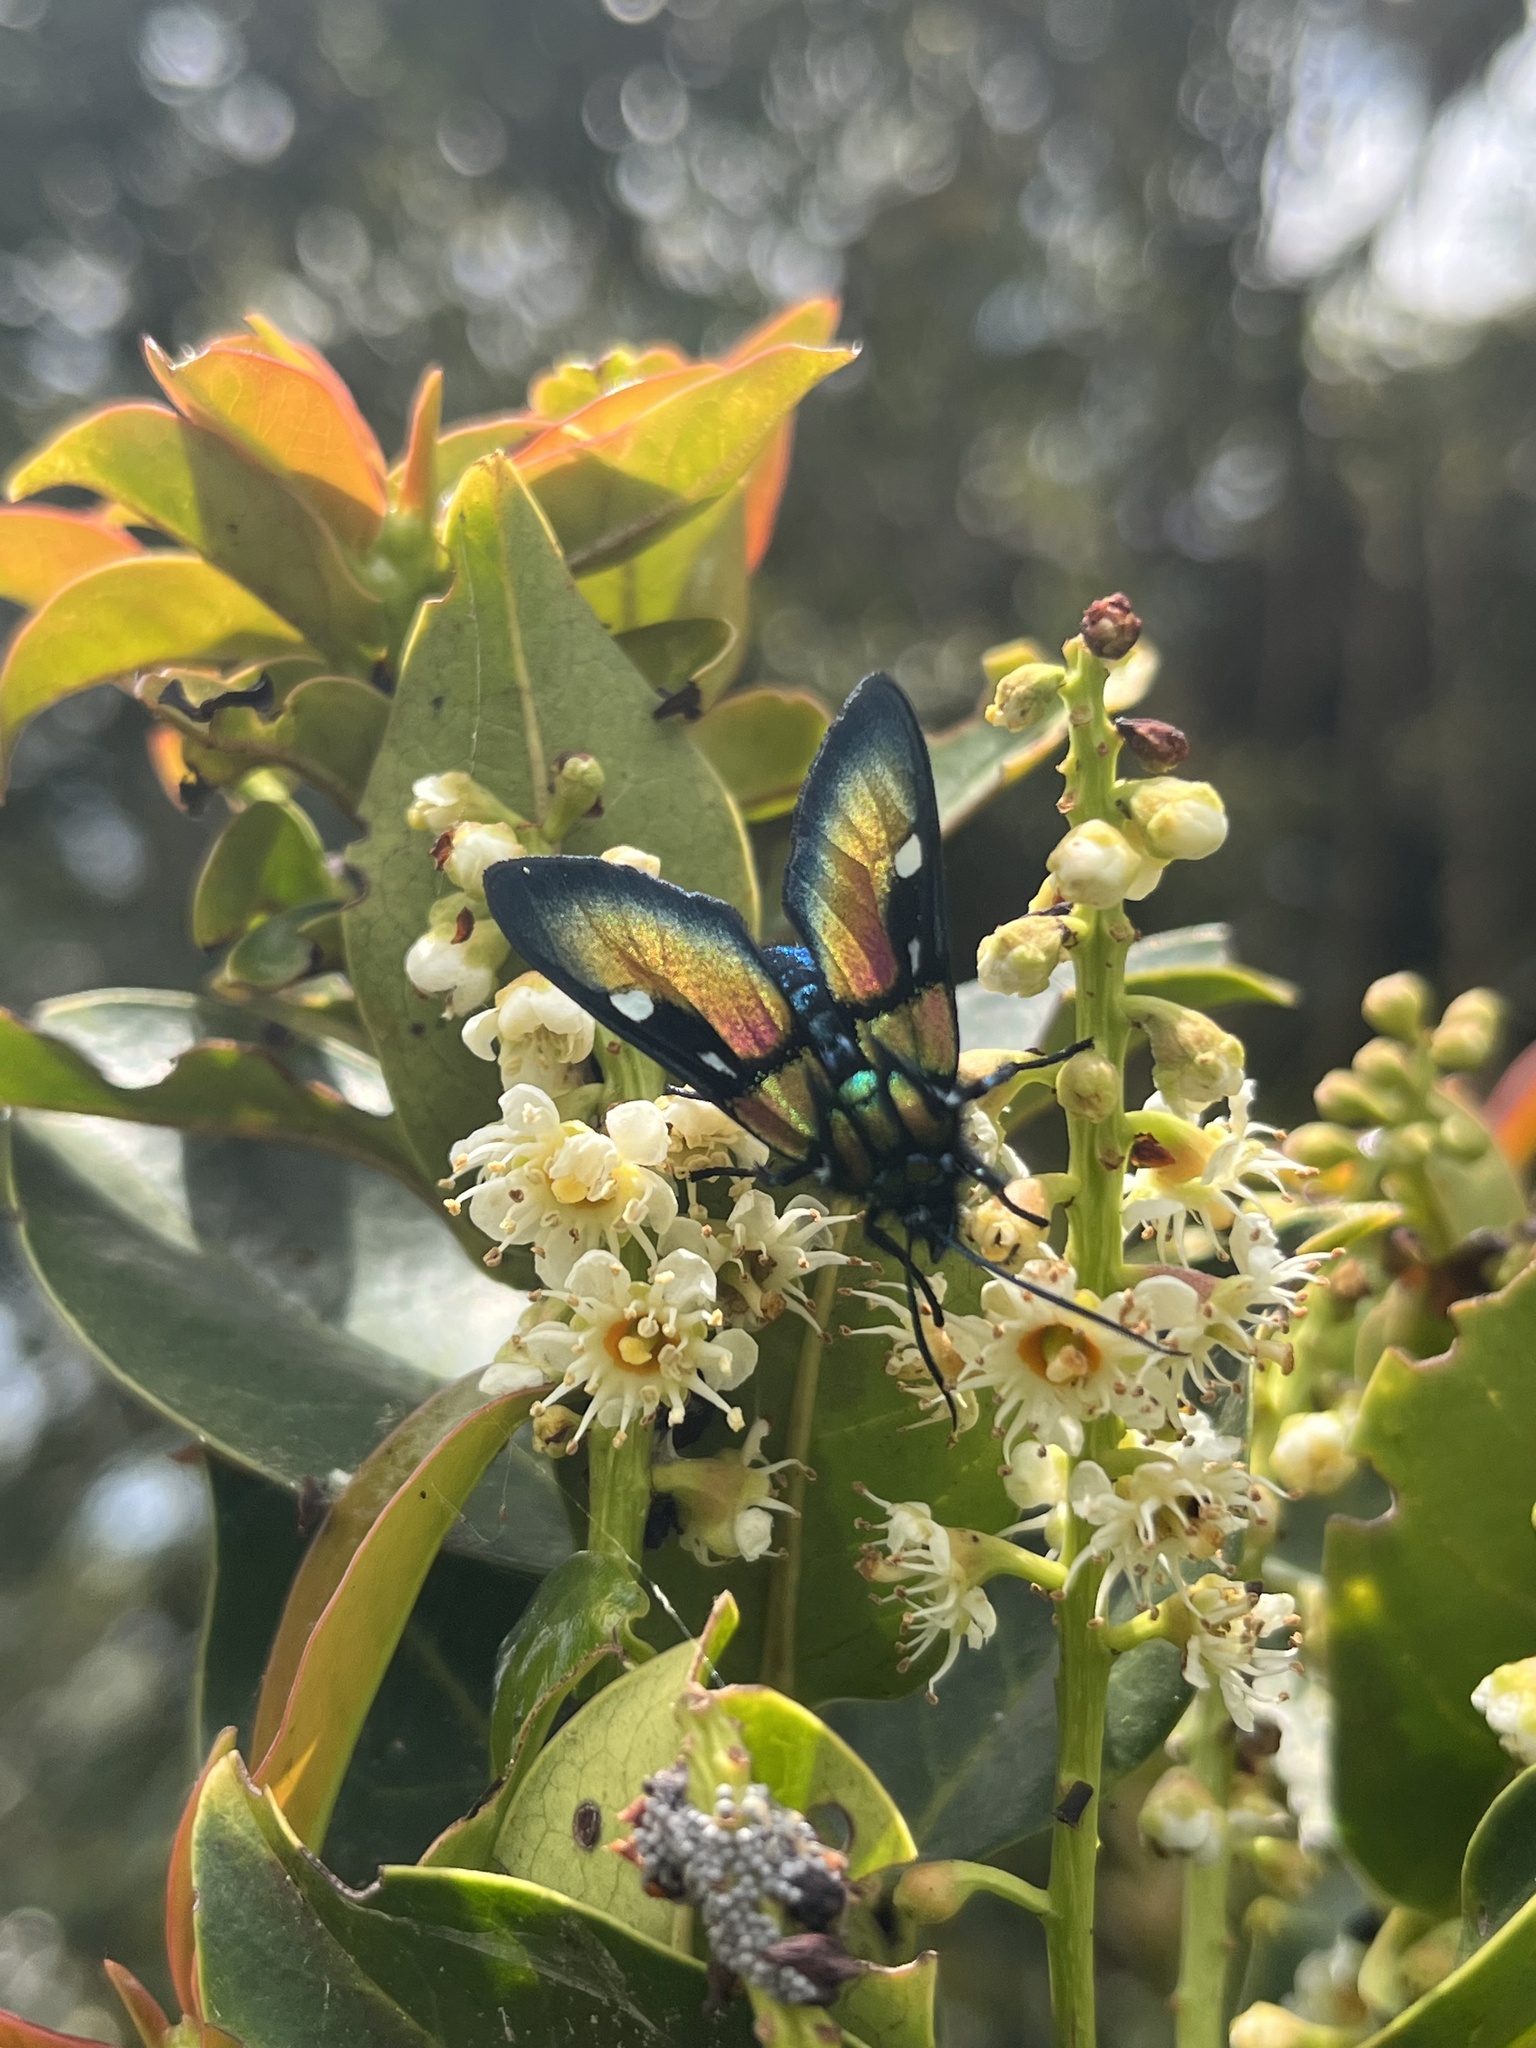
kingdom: Animalia
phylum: Arthropoda
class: Insecta
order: Lepidoptera
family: Erebidae
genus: Chrysocale
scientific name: Chrysocale ignita
